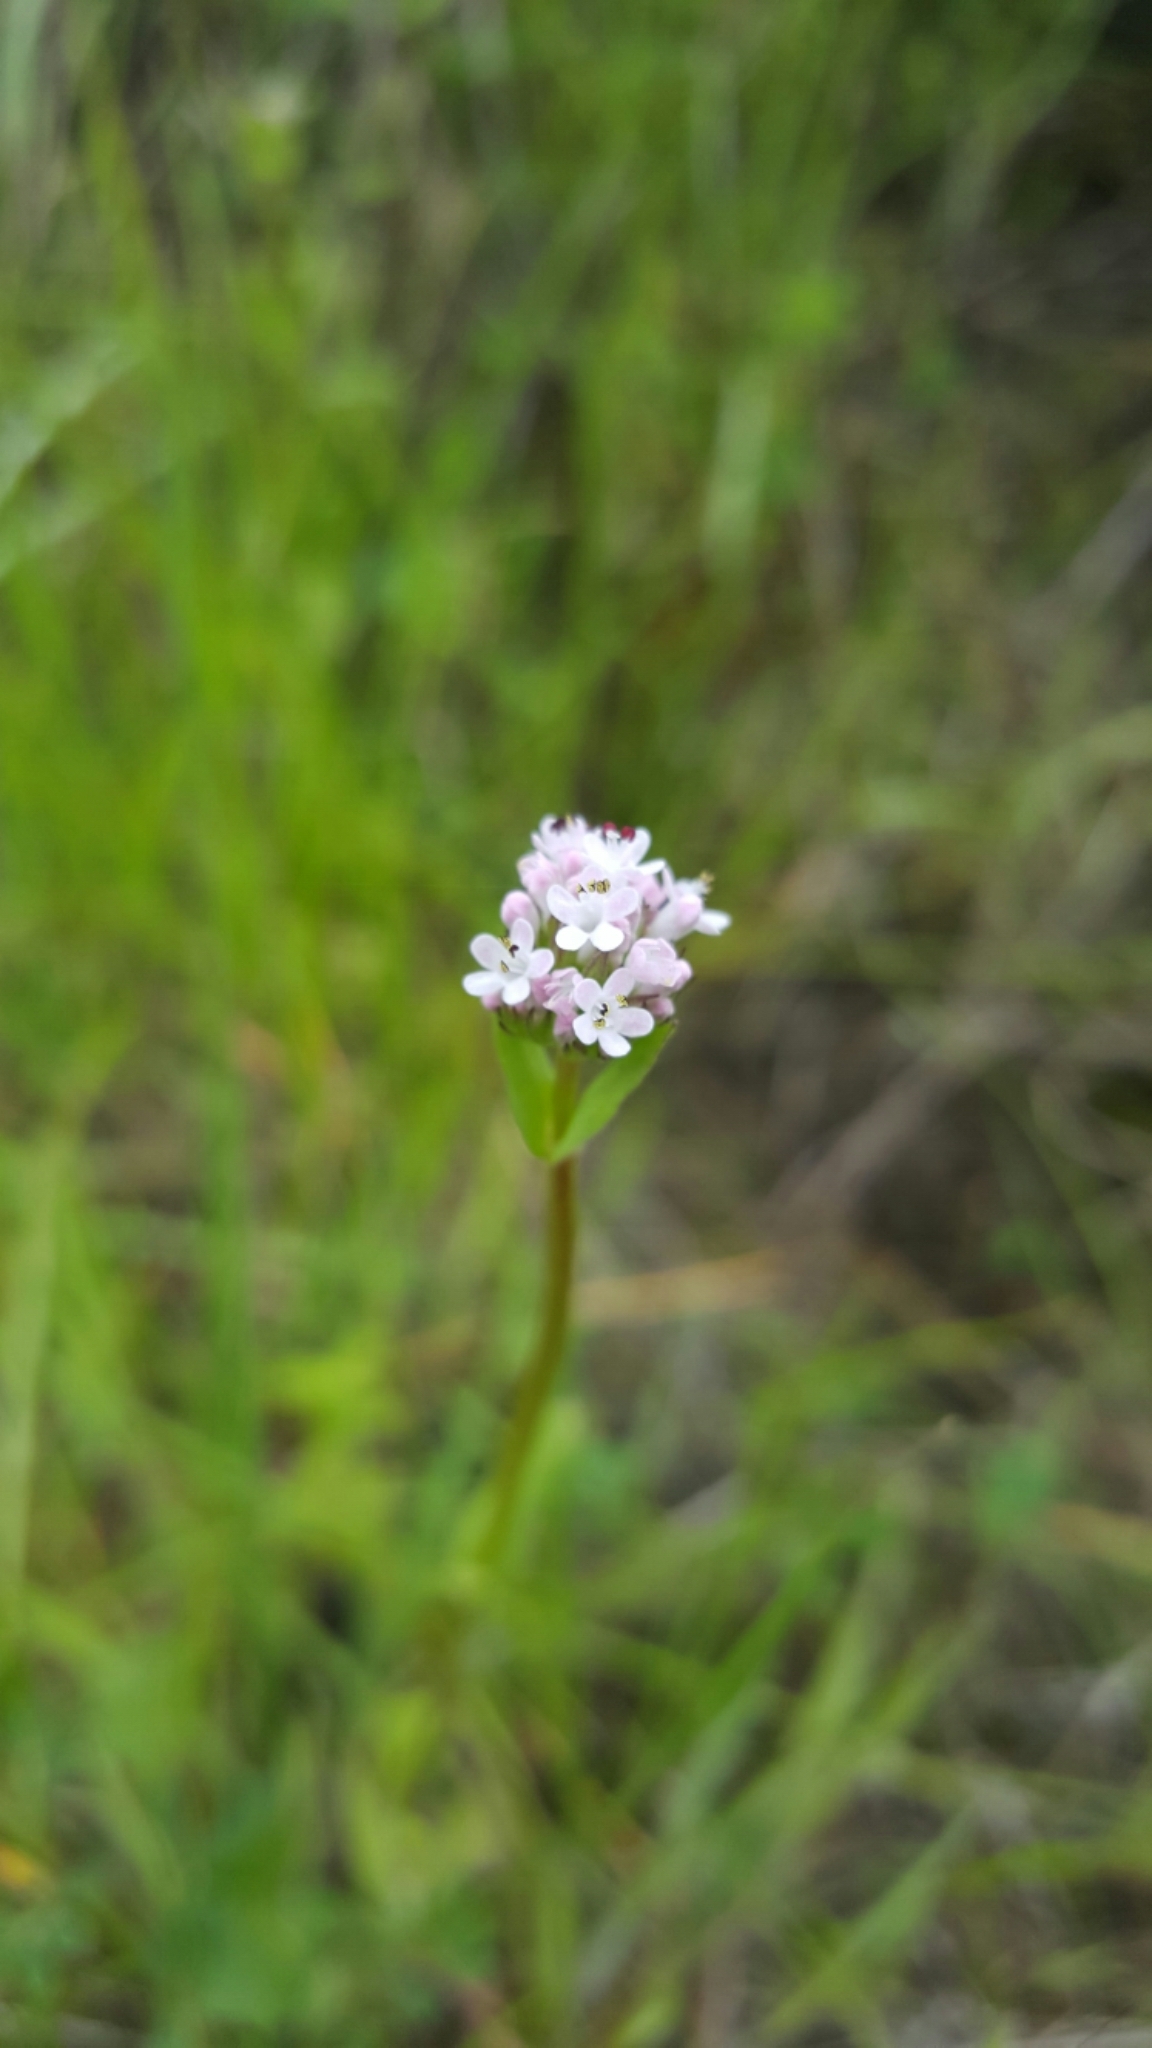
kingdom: Plantae
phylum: Tracheophyta
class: Magnoliopsida
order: Dipsacales
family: Caprifoliaceae
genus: Plectritis
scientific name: Plectritis macroptera
